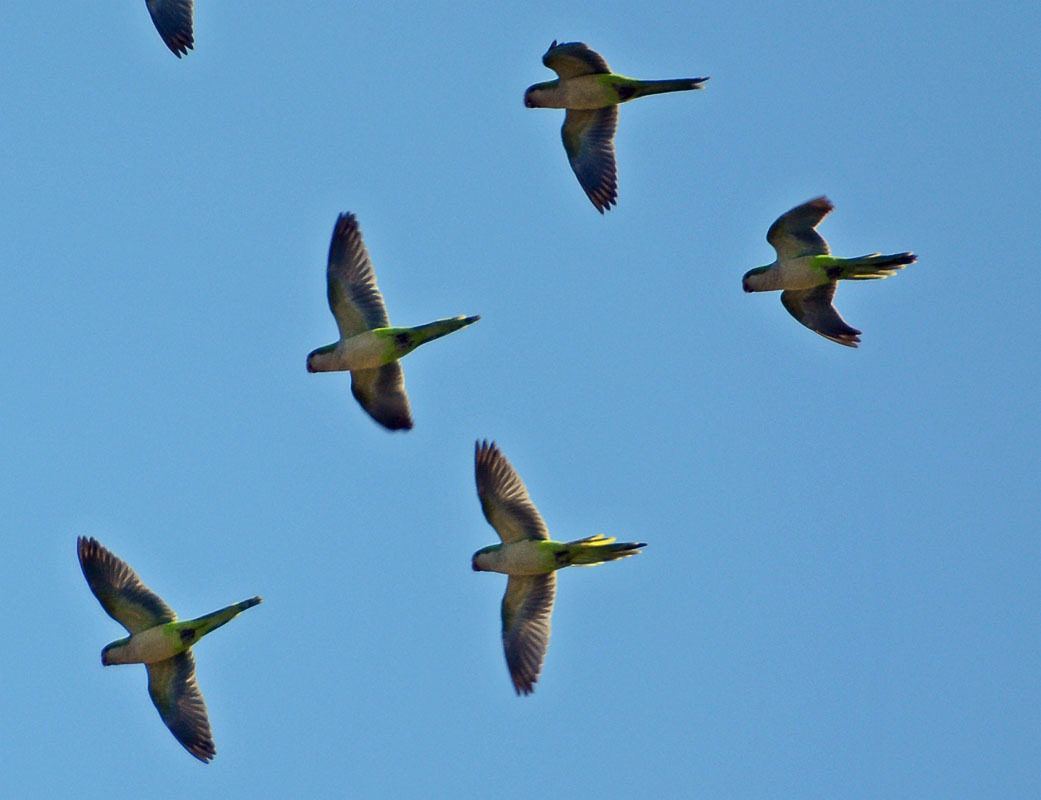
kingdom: Animalia
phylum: Chordata
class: Aves
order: Psittaciformes
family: Psittacidae
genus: Myiopsitta
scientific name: Myiopsitta monachus
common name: Monk parakeet
